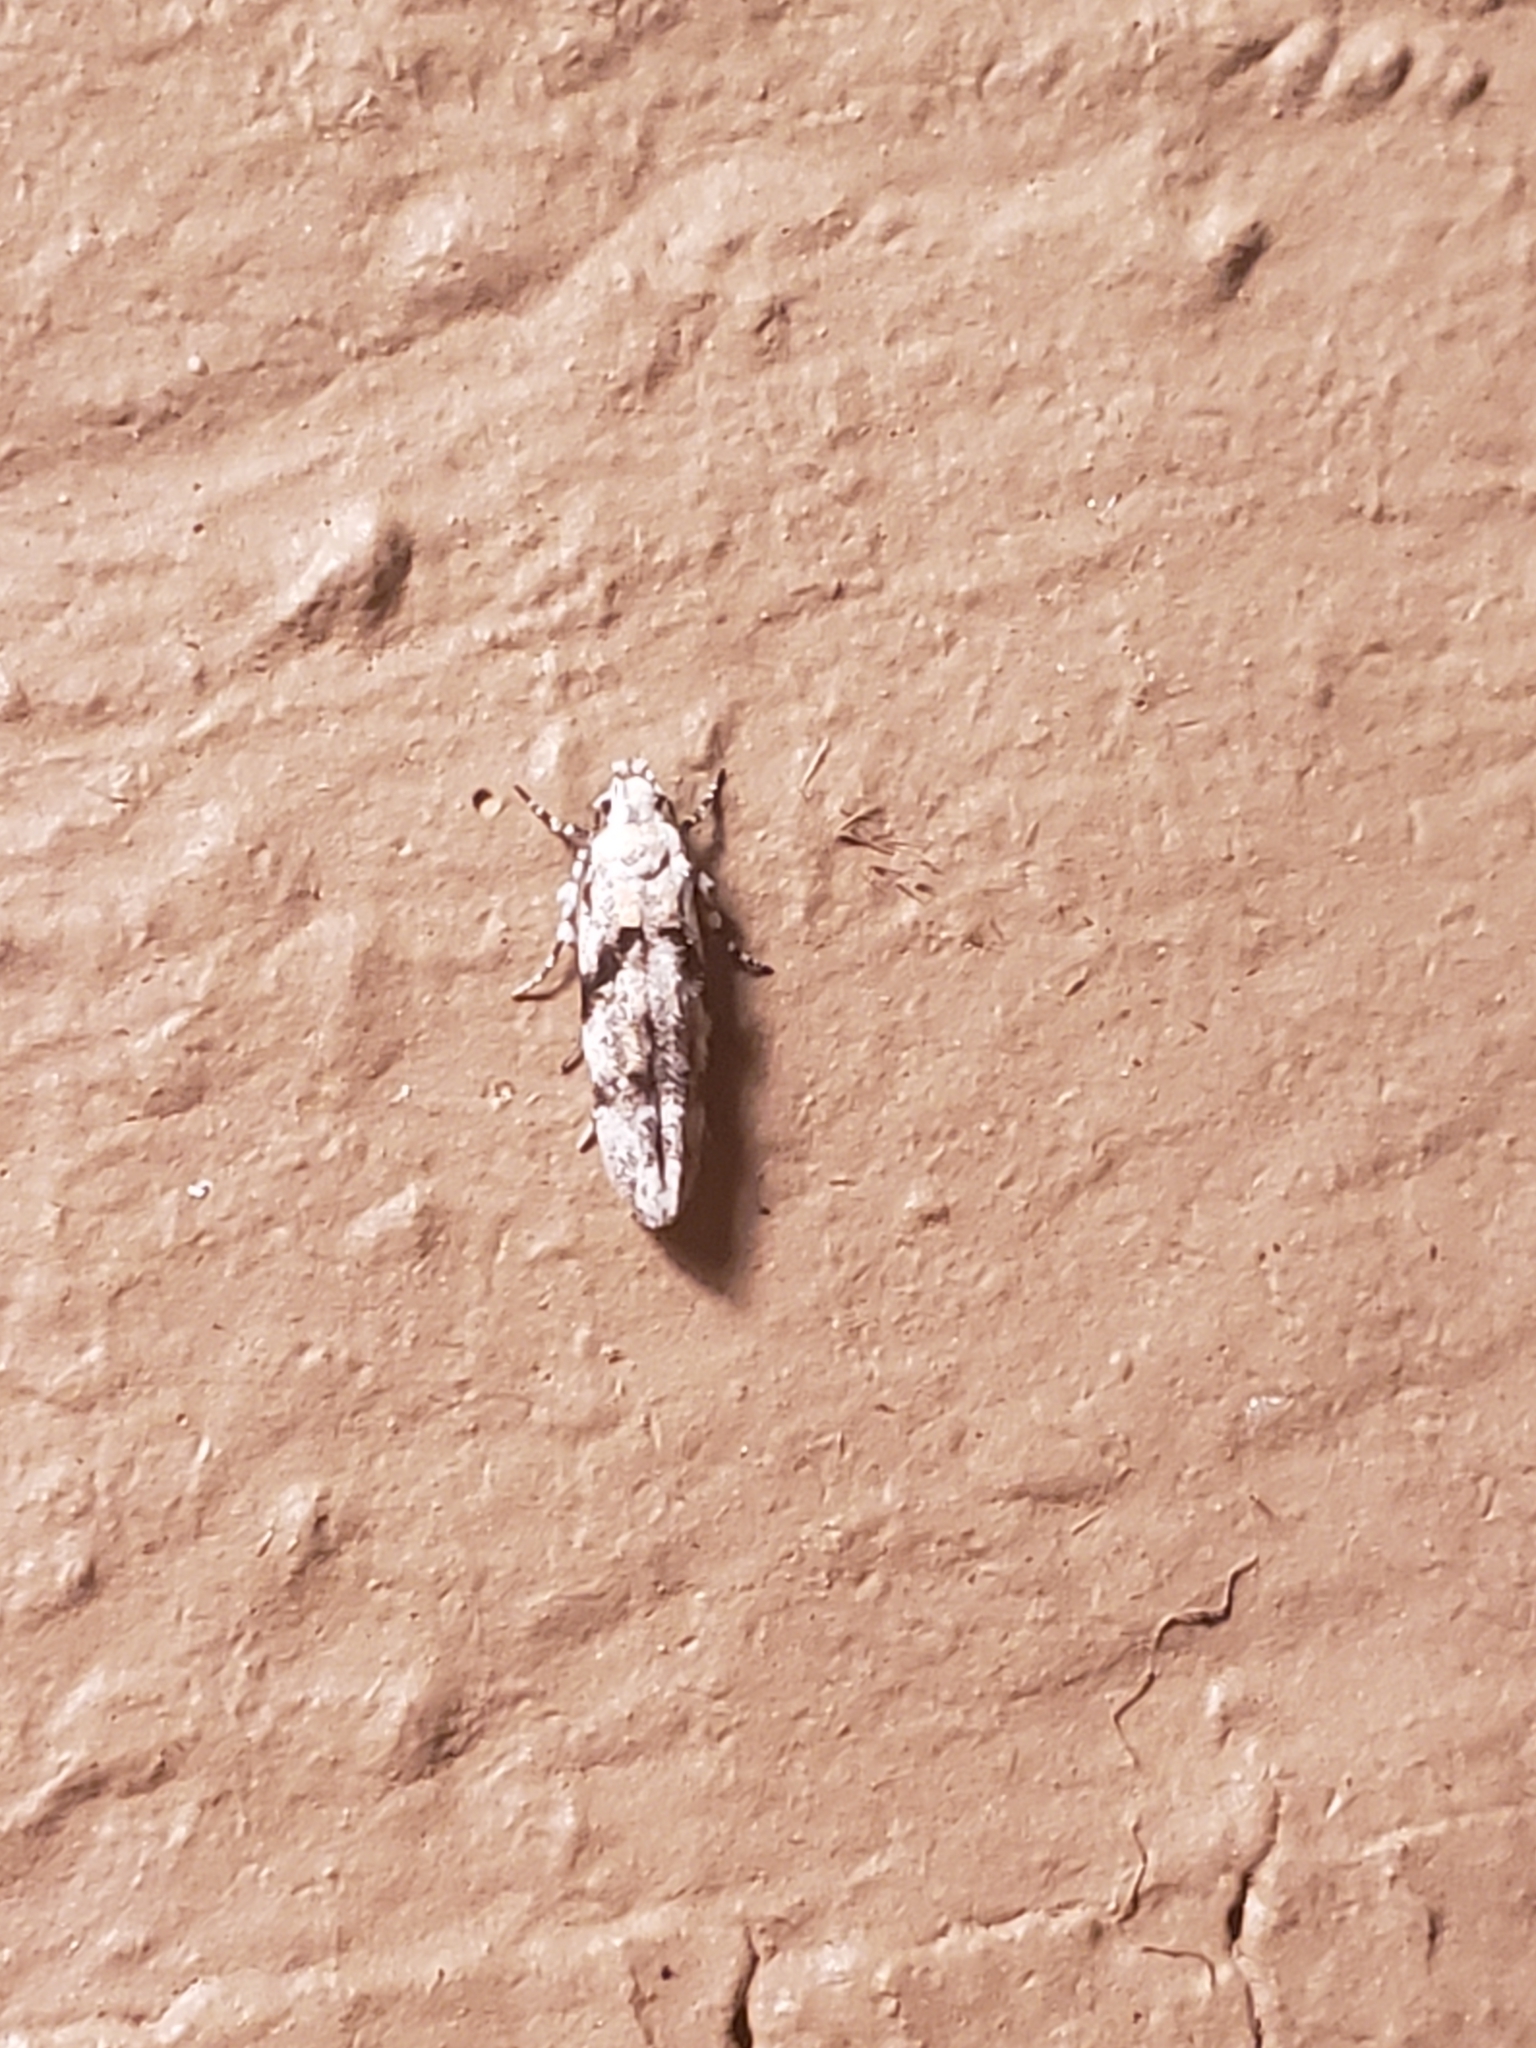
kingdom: Animalia
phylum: Arthropoda
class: Insecta
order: Lepidoptera
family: Gelechiidae
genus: Arogalea
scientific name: Arogalea cristifasciella
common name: White stripe-backed moth
